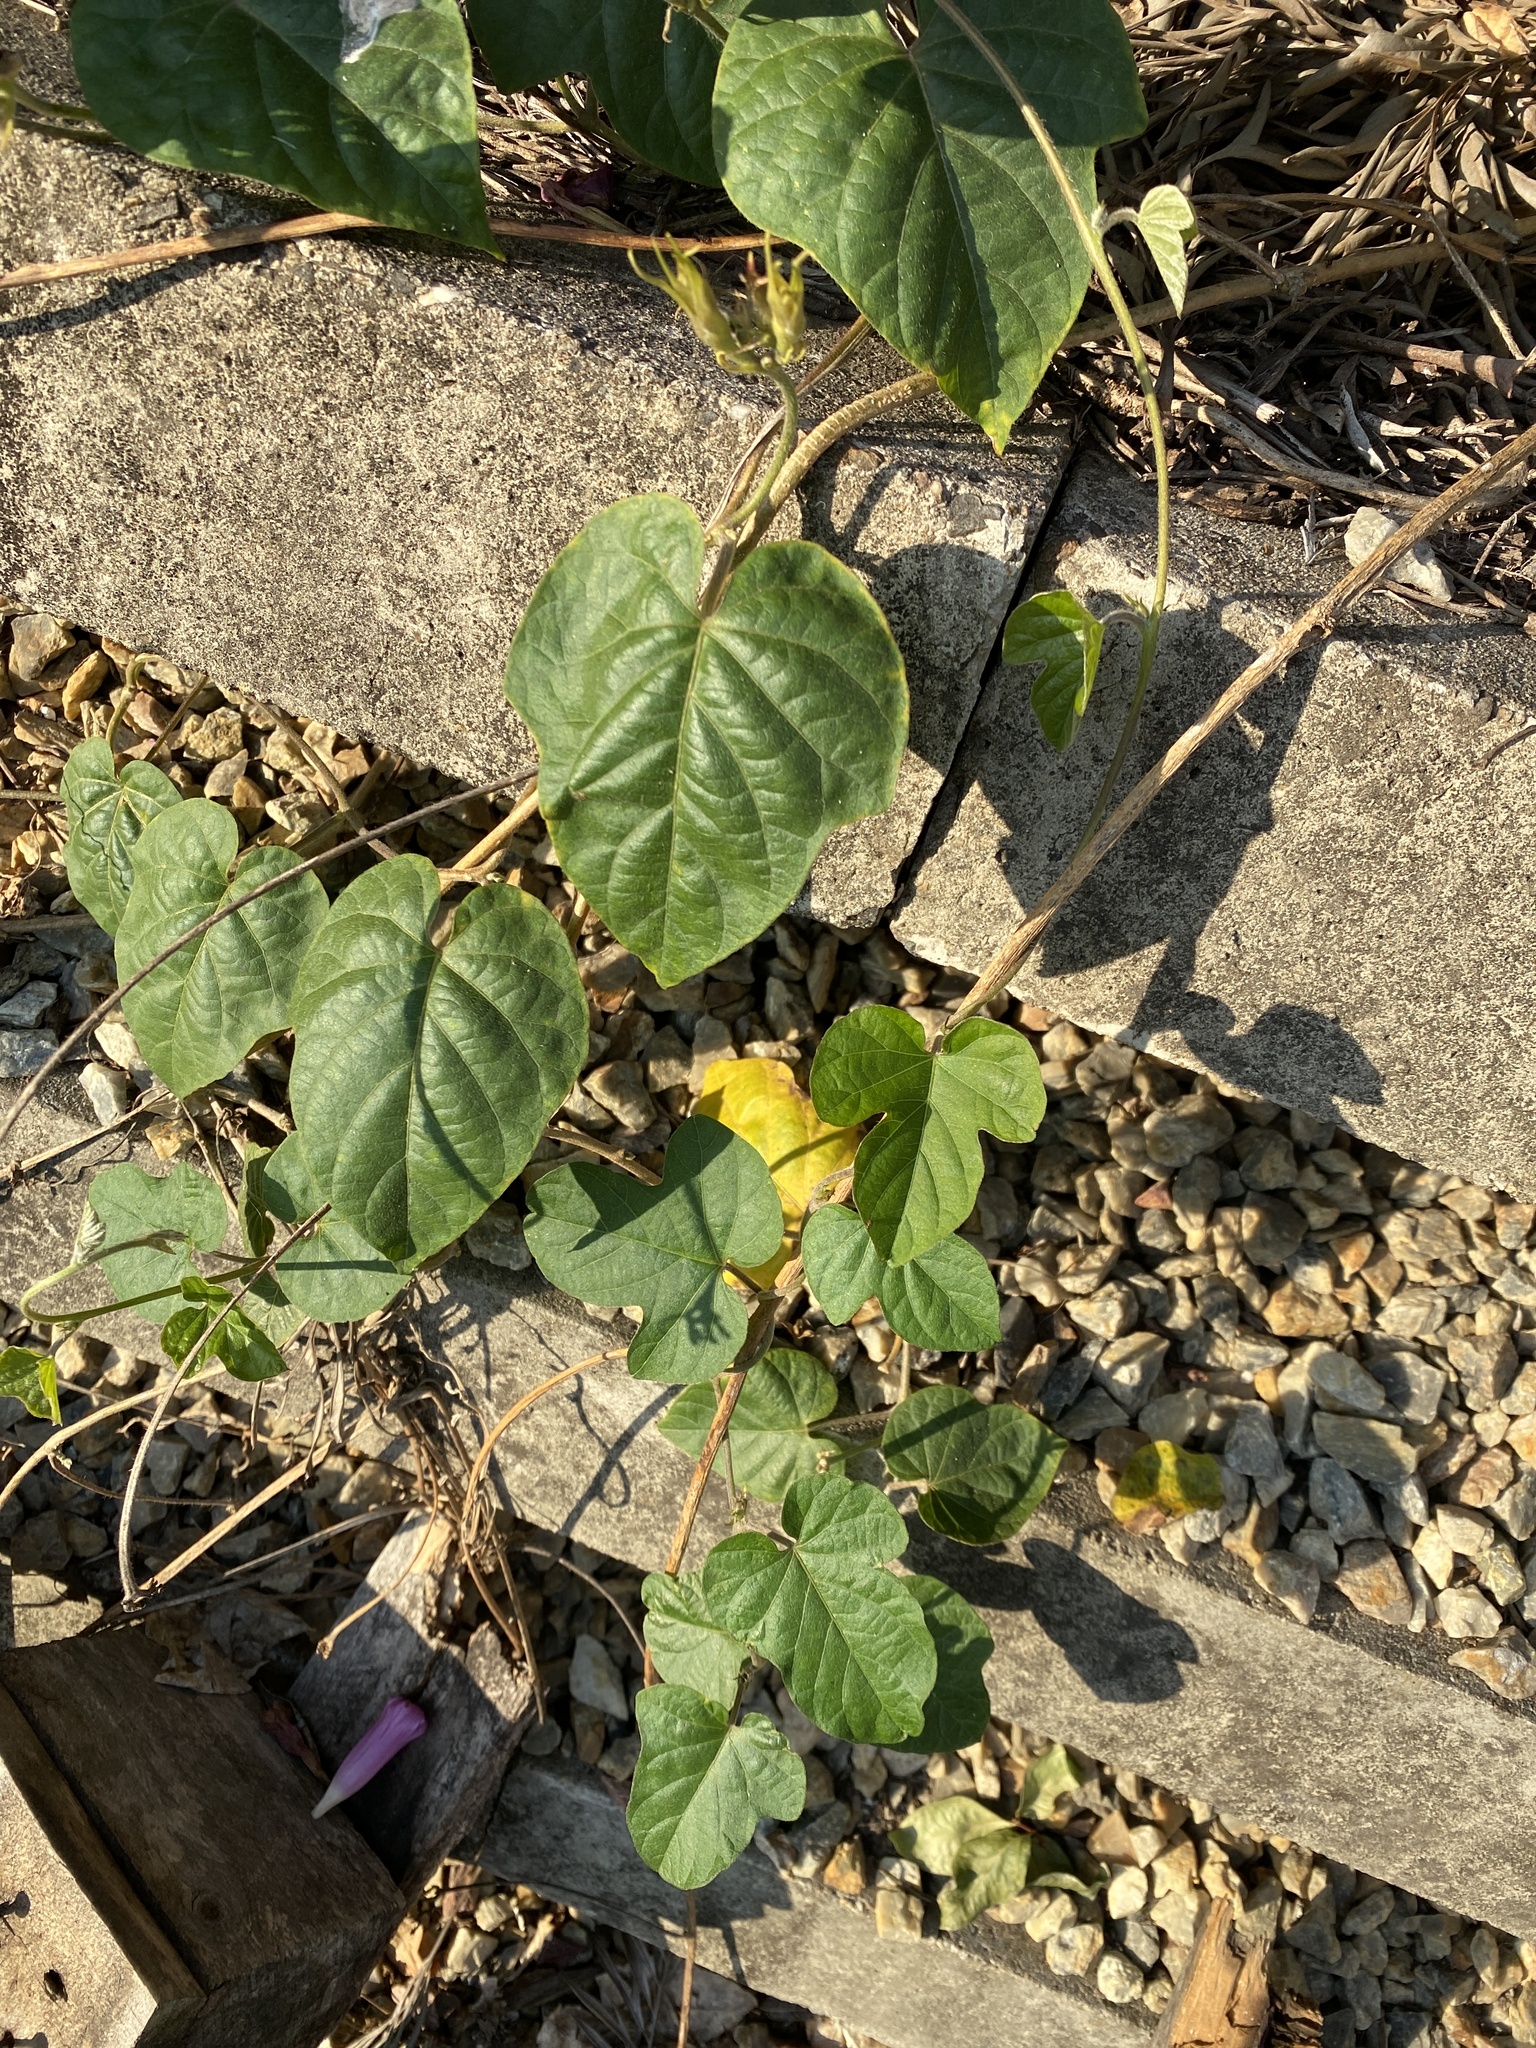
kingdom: Plantae
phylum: Tracheophyta
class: Magnoliopsida
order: Solanales
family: Convolvulaceae
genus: Ipomoea
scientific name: Ipomoea indica
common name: Blue dawnflower
